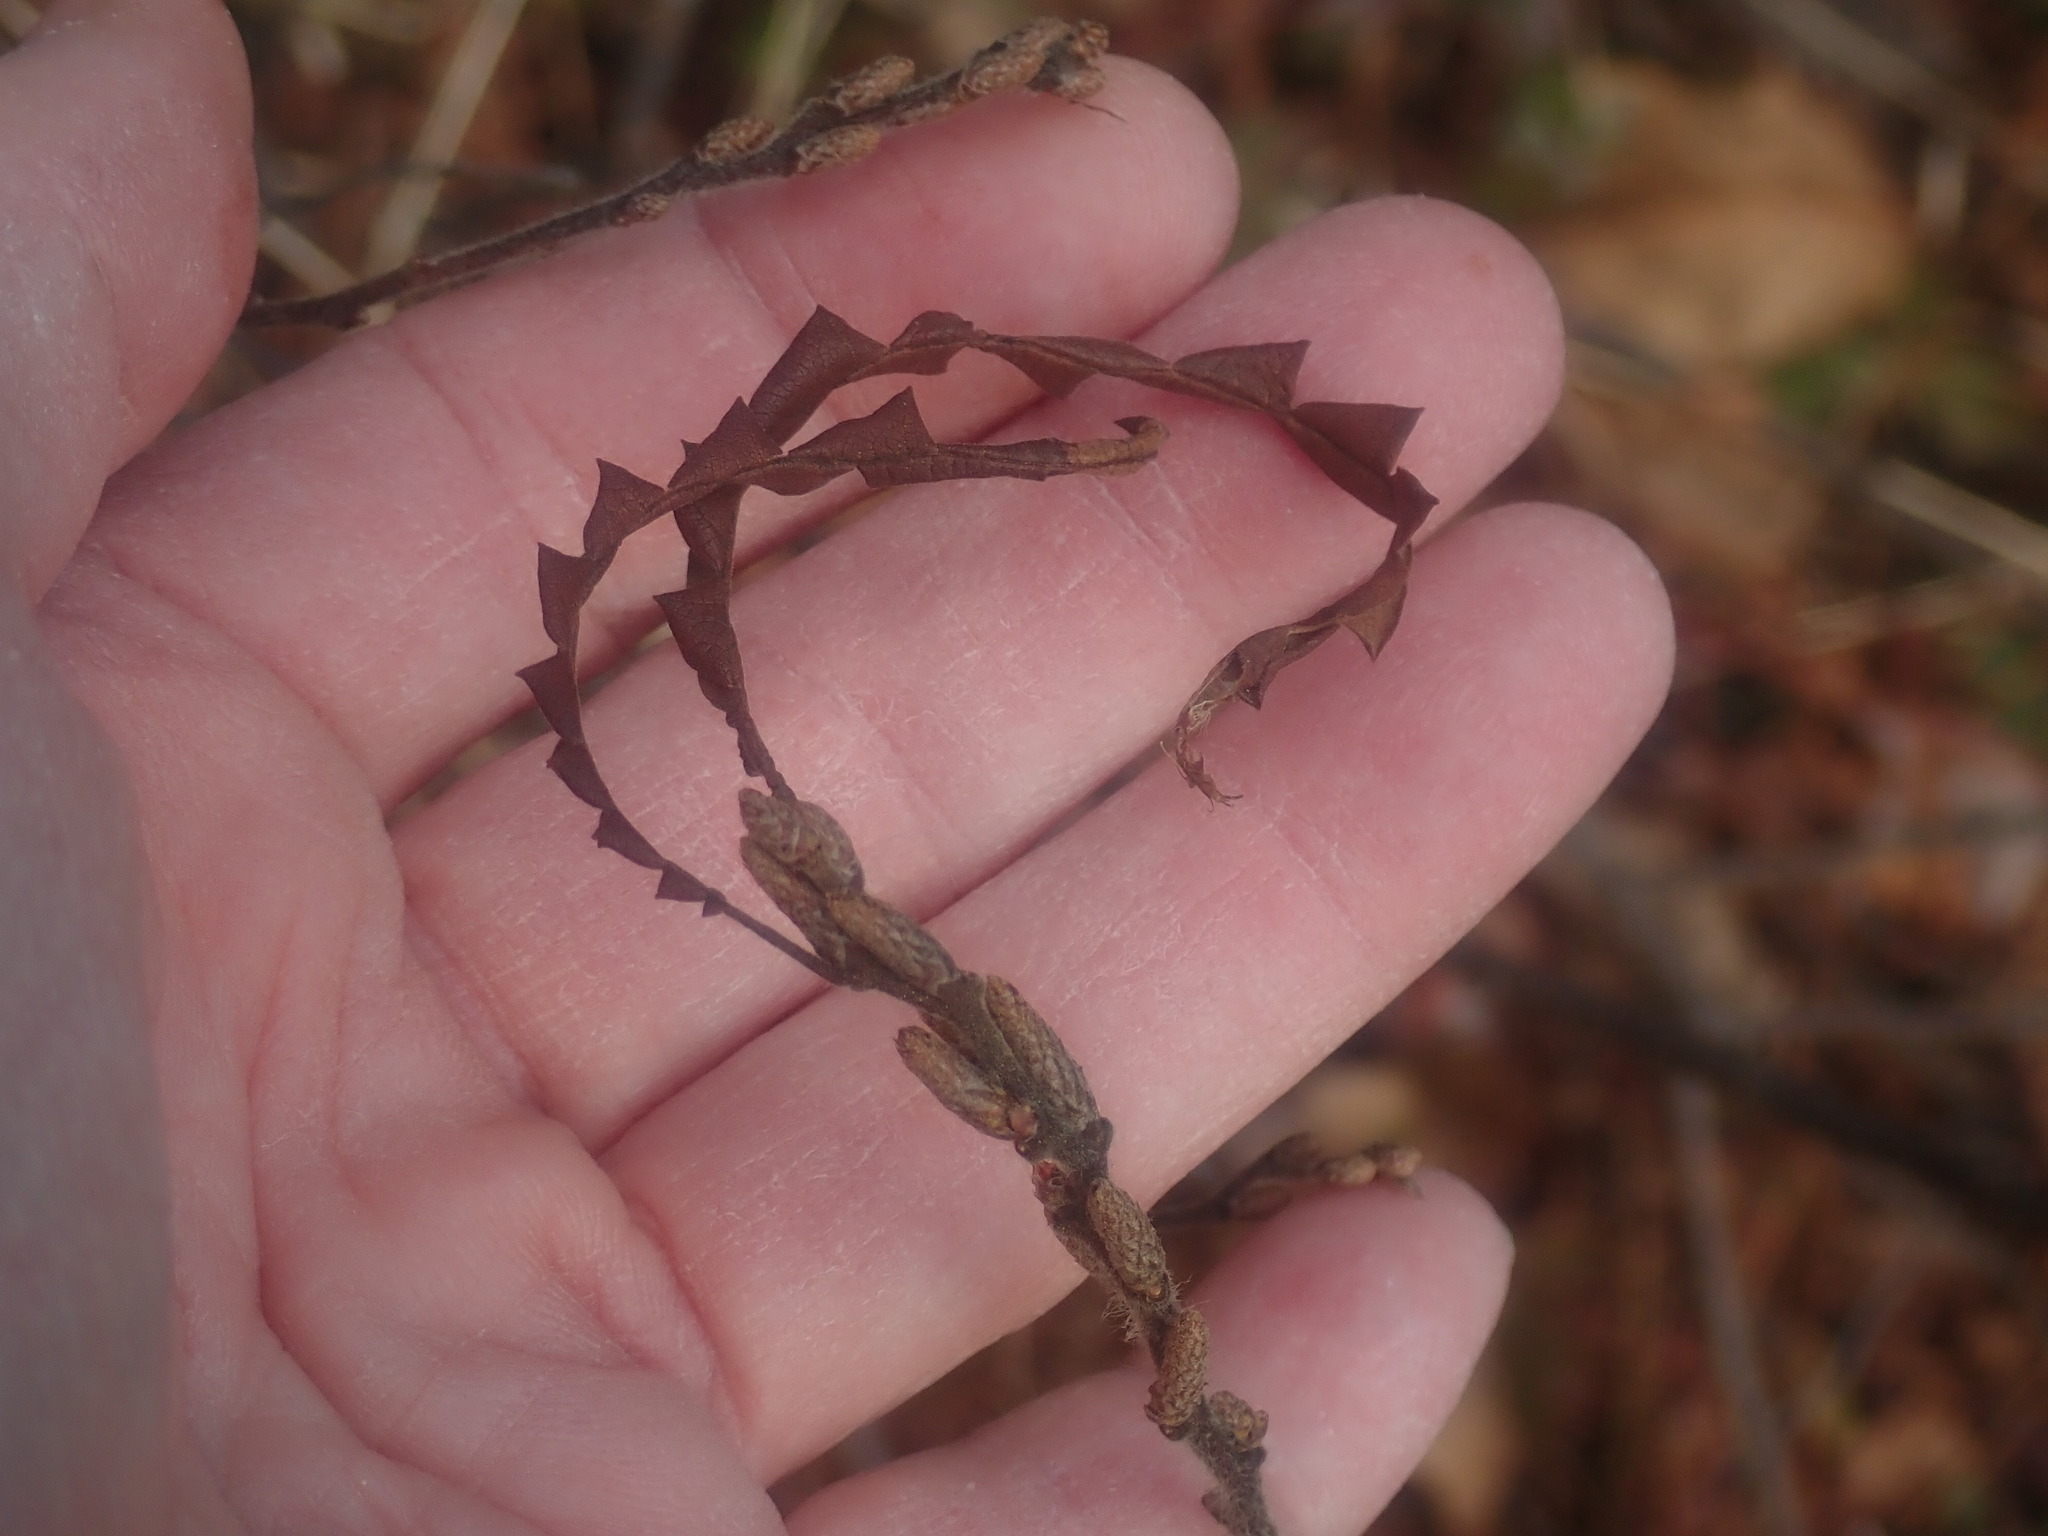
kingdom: Plantae
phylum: Tracheophyta
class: Magnoliopsida
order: Fagales
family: Myricaceae
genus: Comptonia
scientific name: Comptonia peregrina
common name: Sweet-fern
